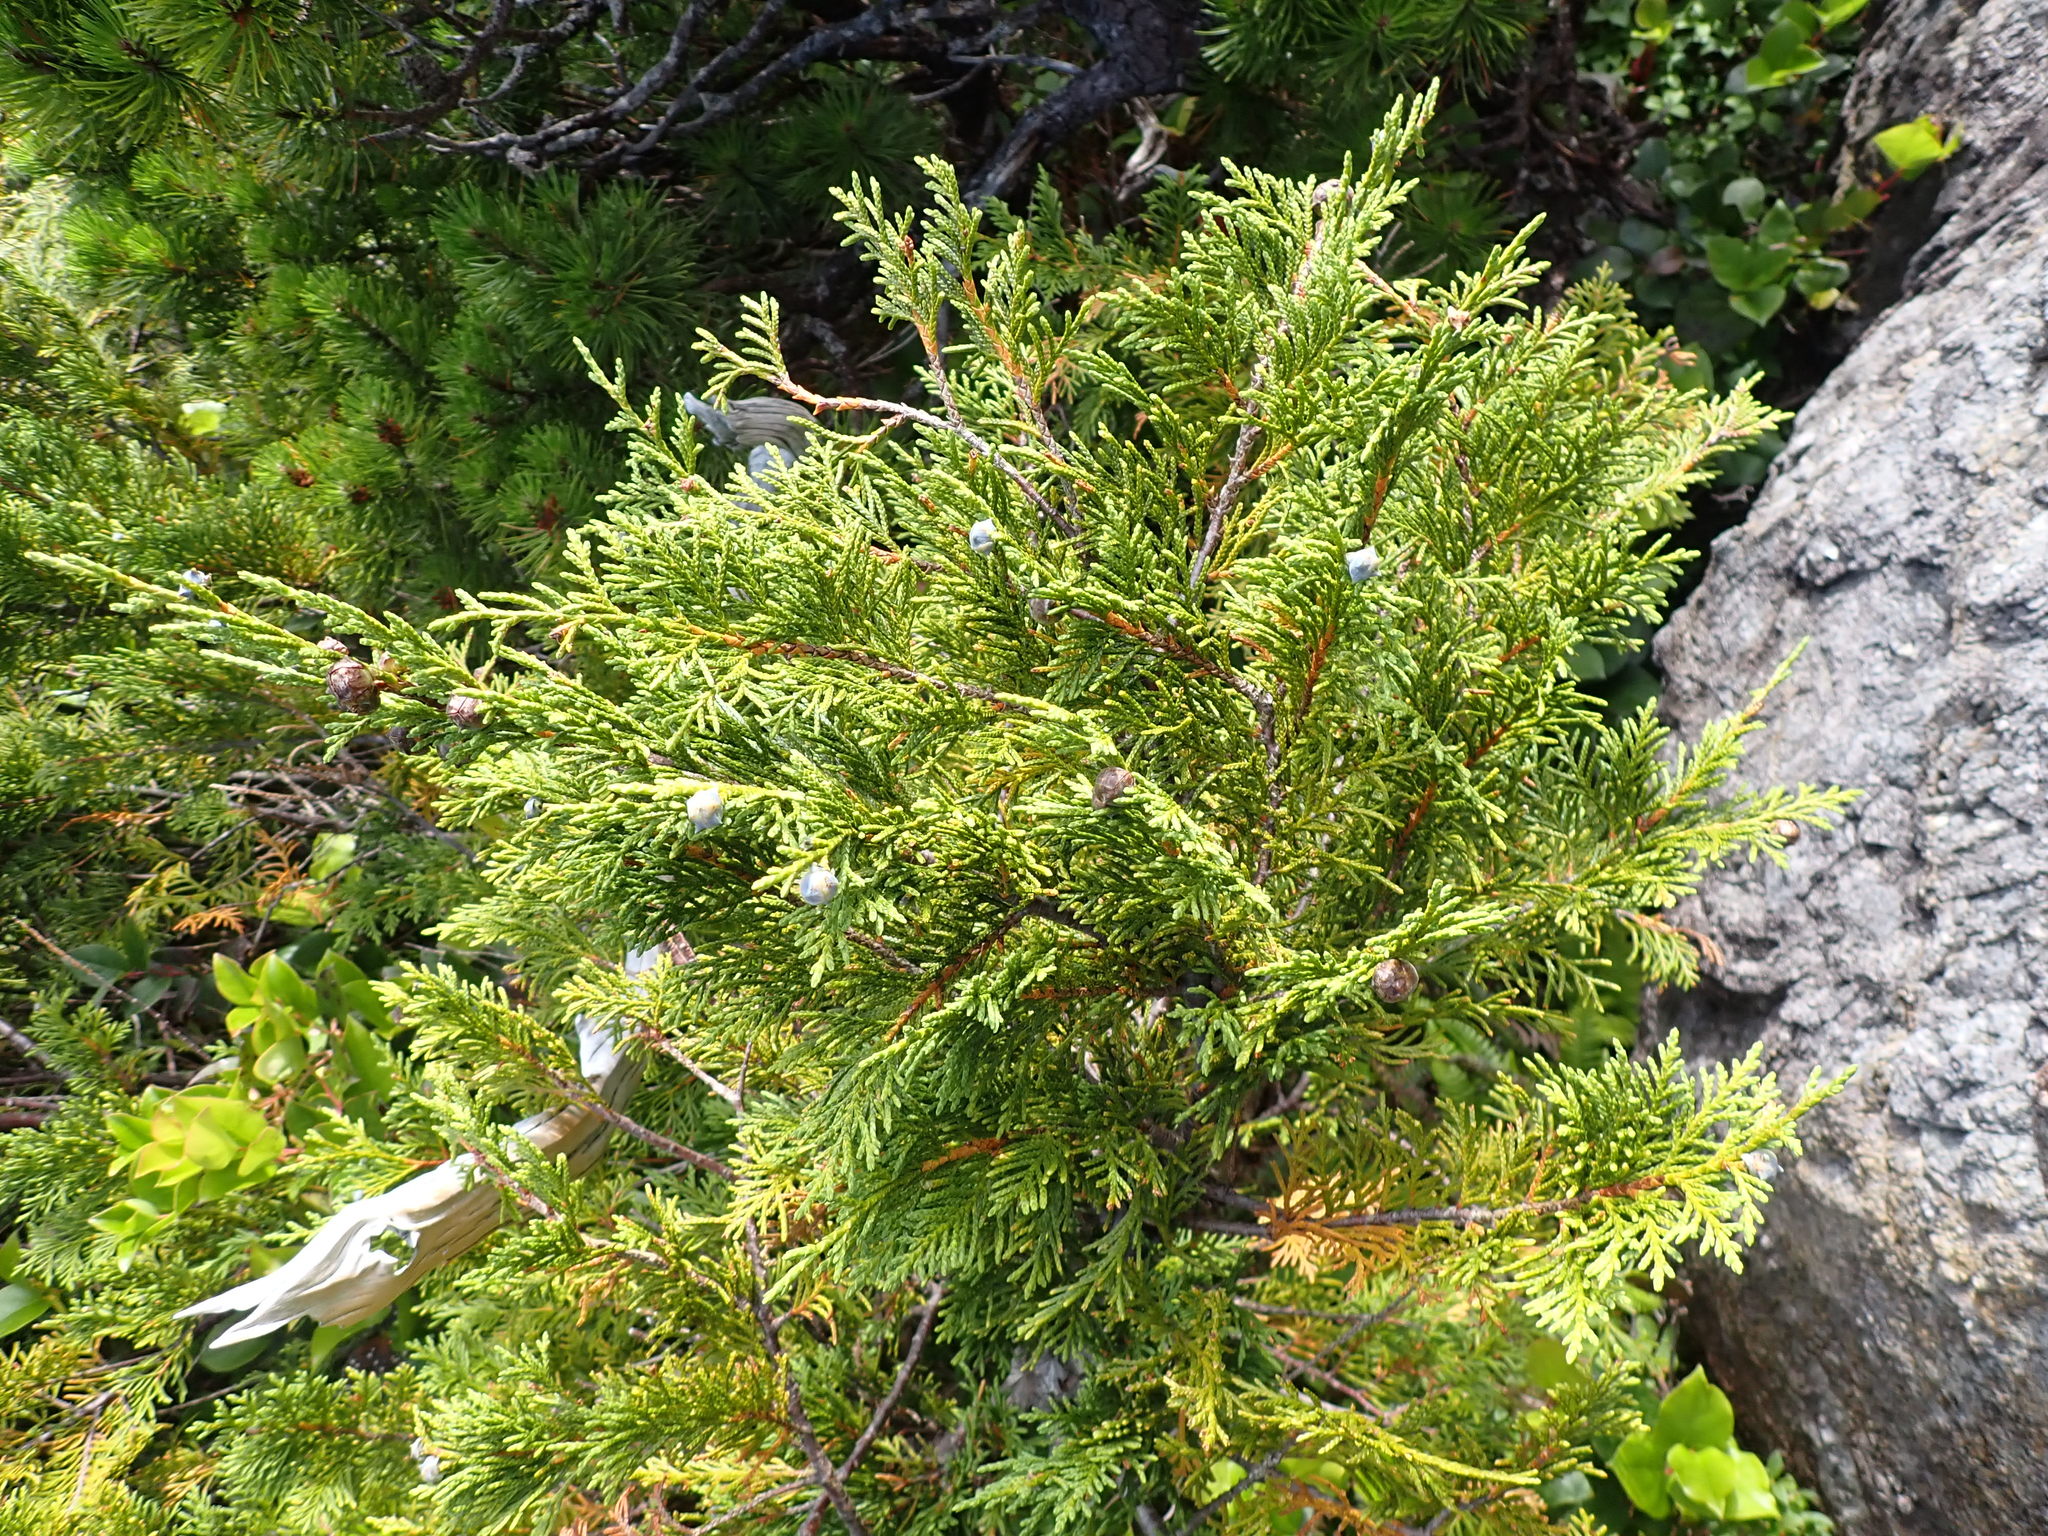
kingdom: Plantae
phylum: Tracheophyta
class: Pinopsida
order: Pinales
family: Cupressaceae
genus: Xanthocyparis
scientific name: Xanthocyparis nootkatensis
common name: Nootka cypress
